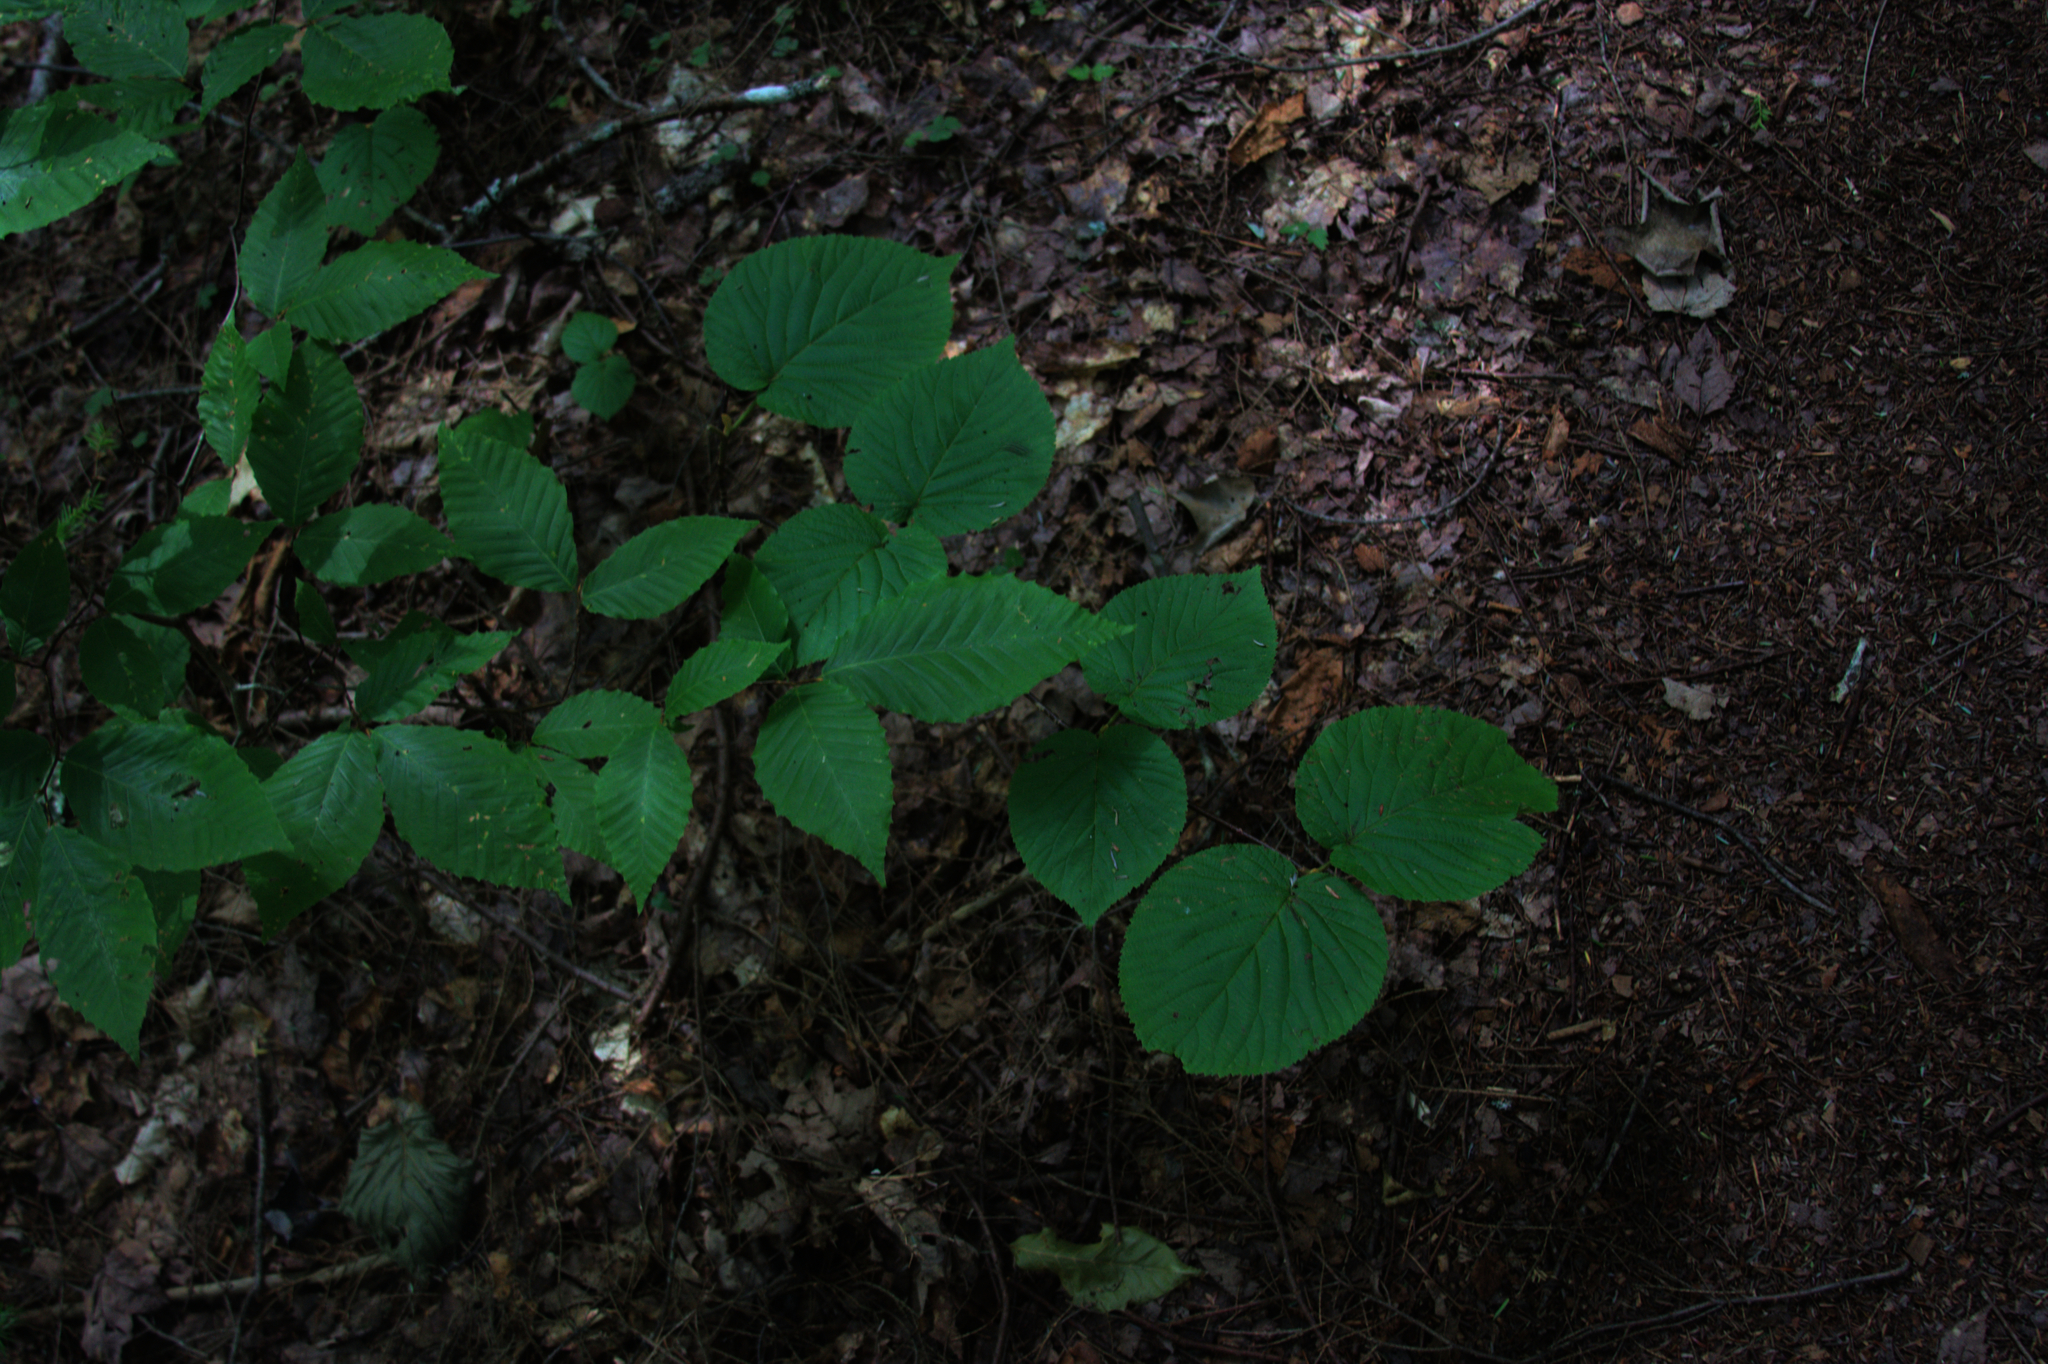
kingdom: Plantae
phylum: Tracheophyta
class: Magnoliopsida
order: Fagales
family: Fagaceae
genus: Fagus
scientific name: Fagus grandifolia
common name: American beech
